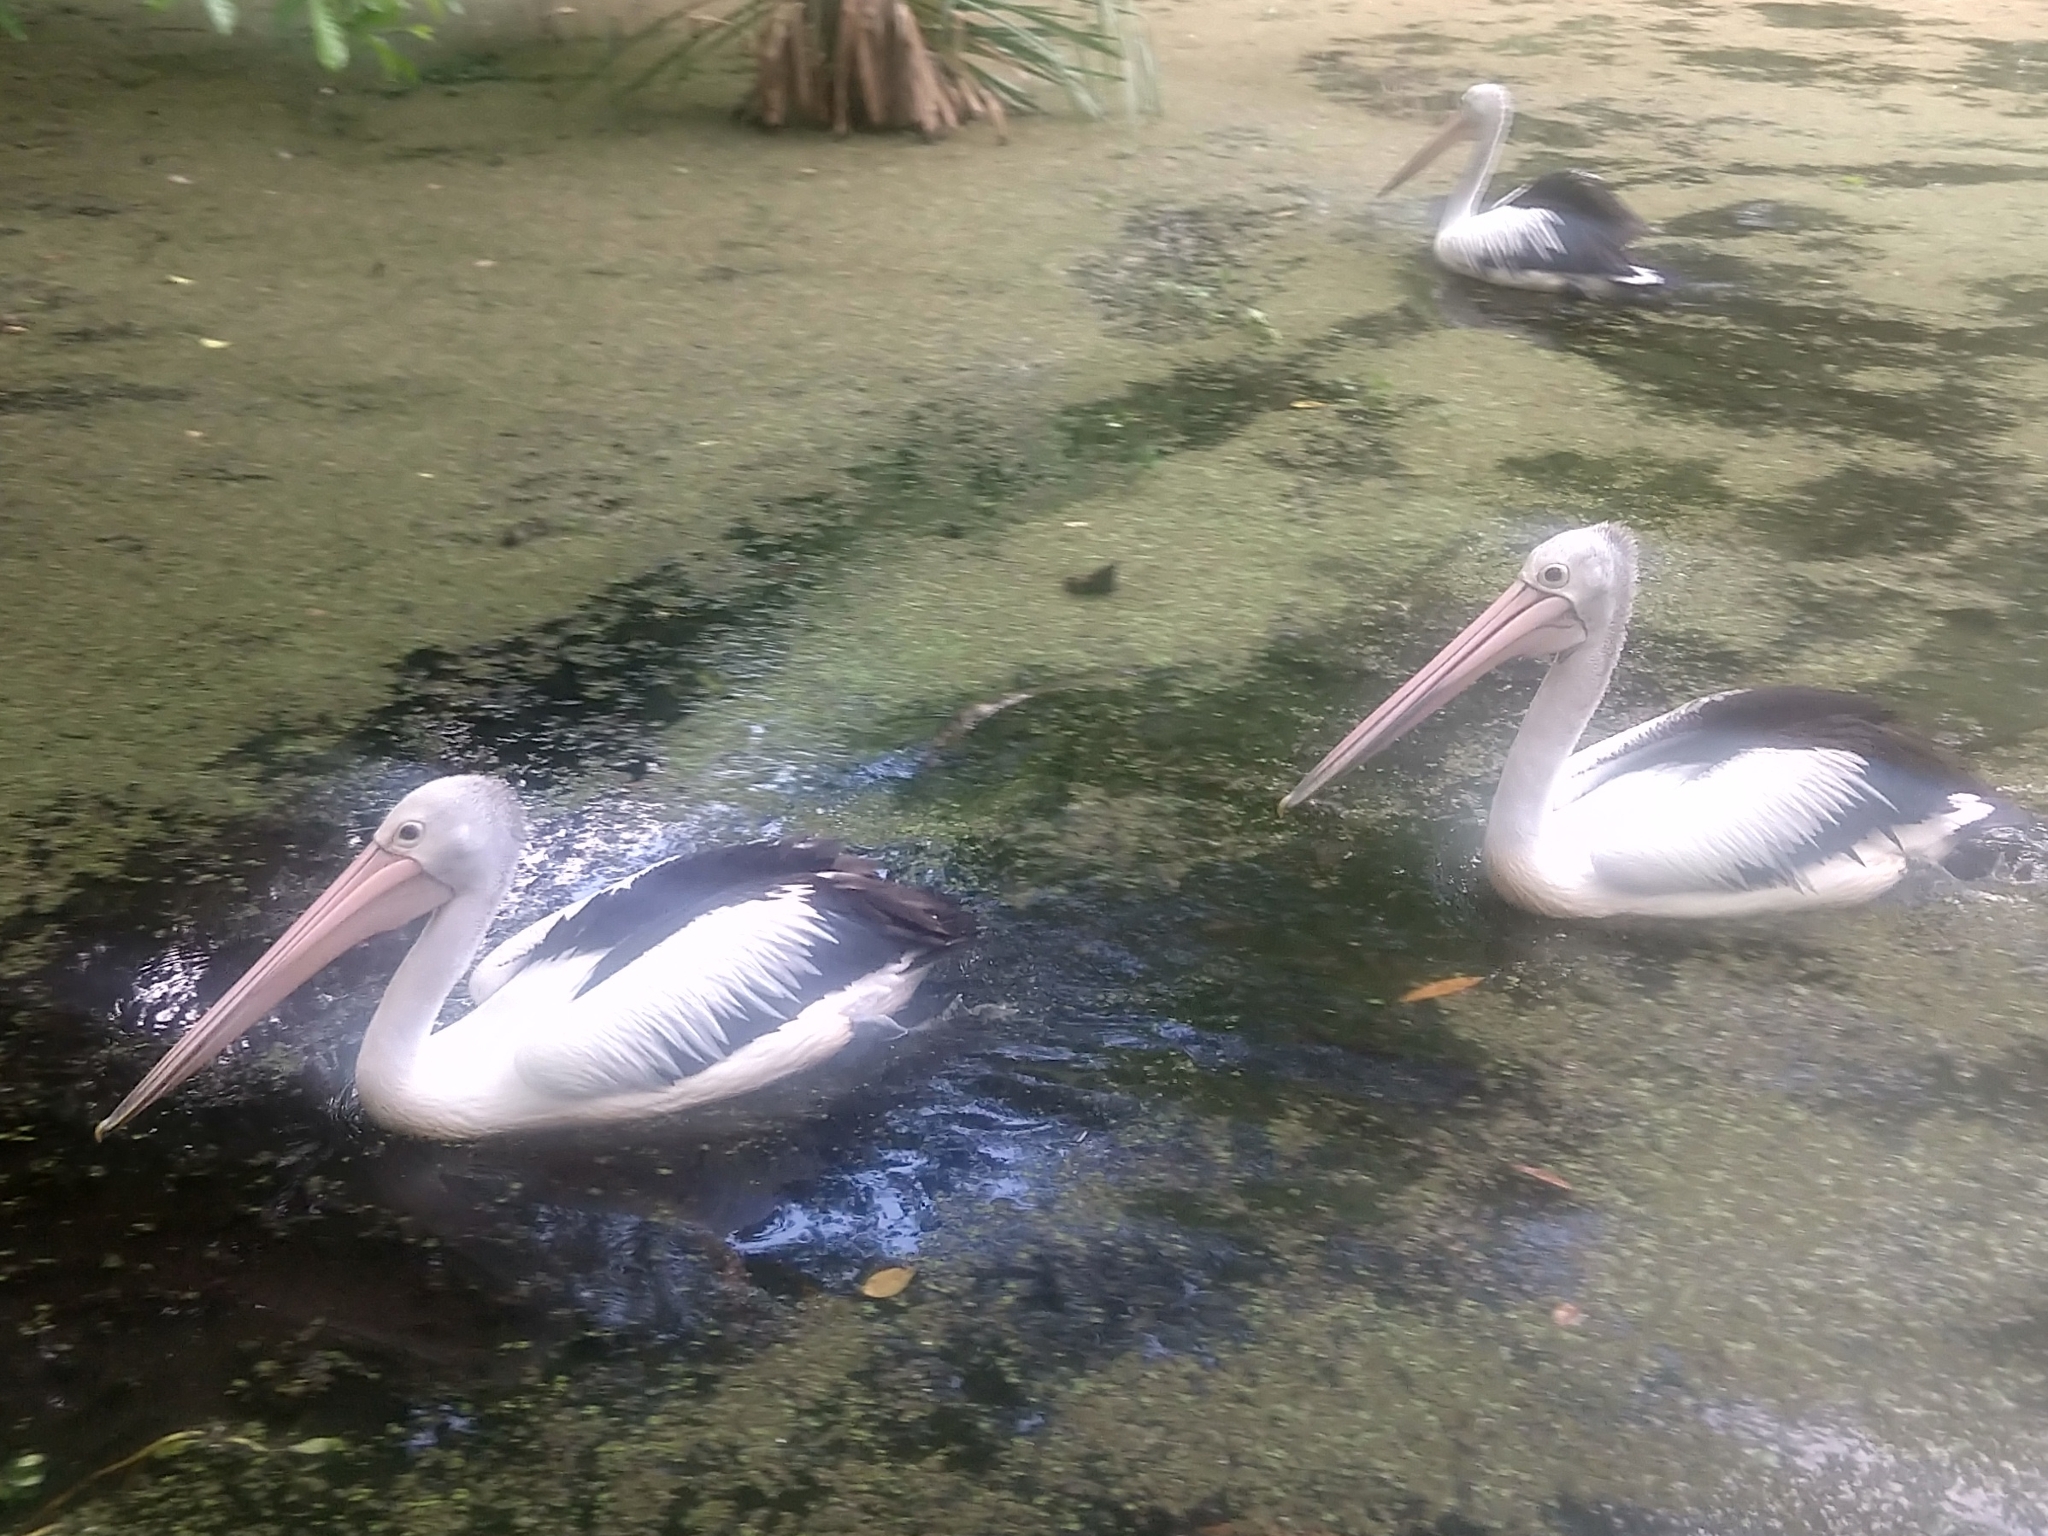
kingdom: Animalia
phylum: Chordata
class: Aves
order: Pelecaniformes
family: Pelecanidae
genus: Pelecanus
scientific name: Pelecanus conspicillatus
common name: Australian pelican
